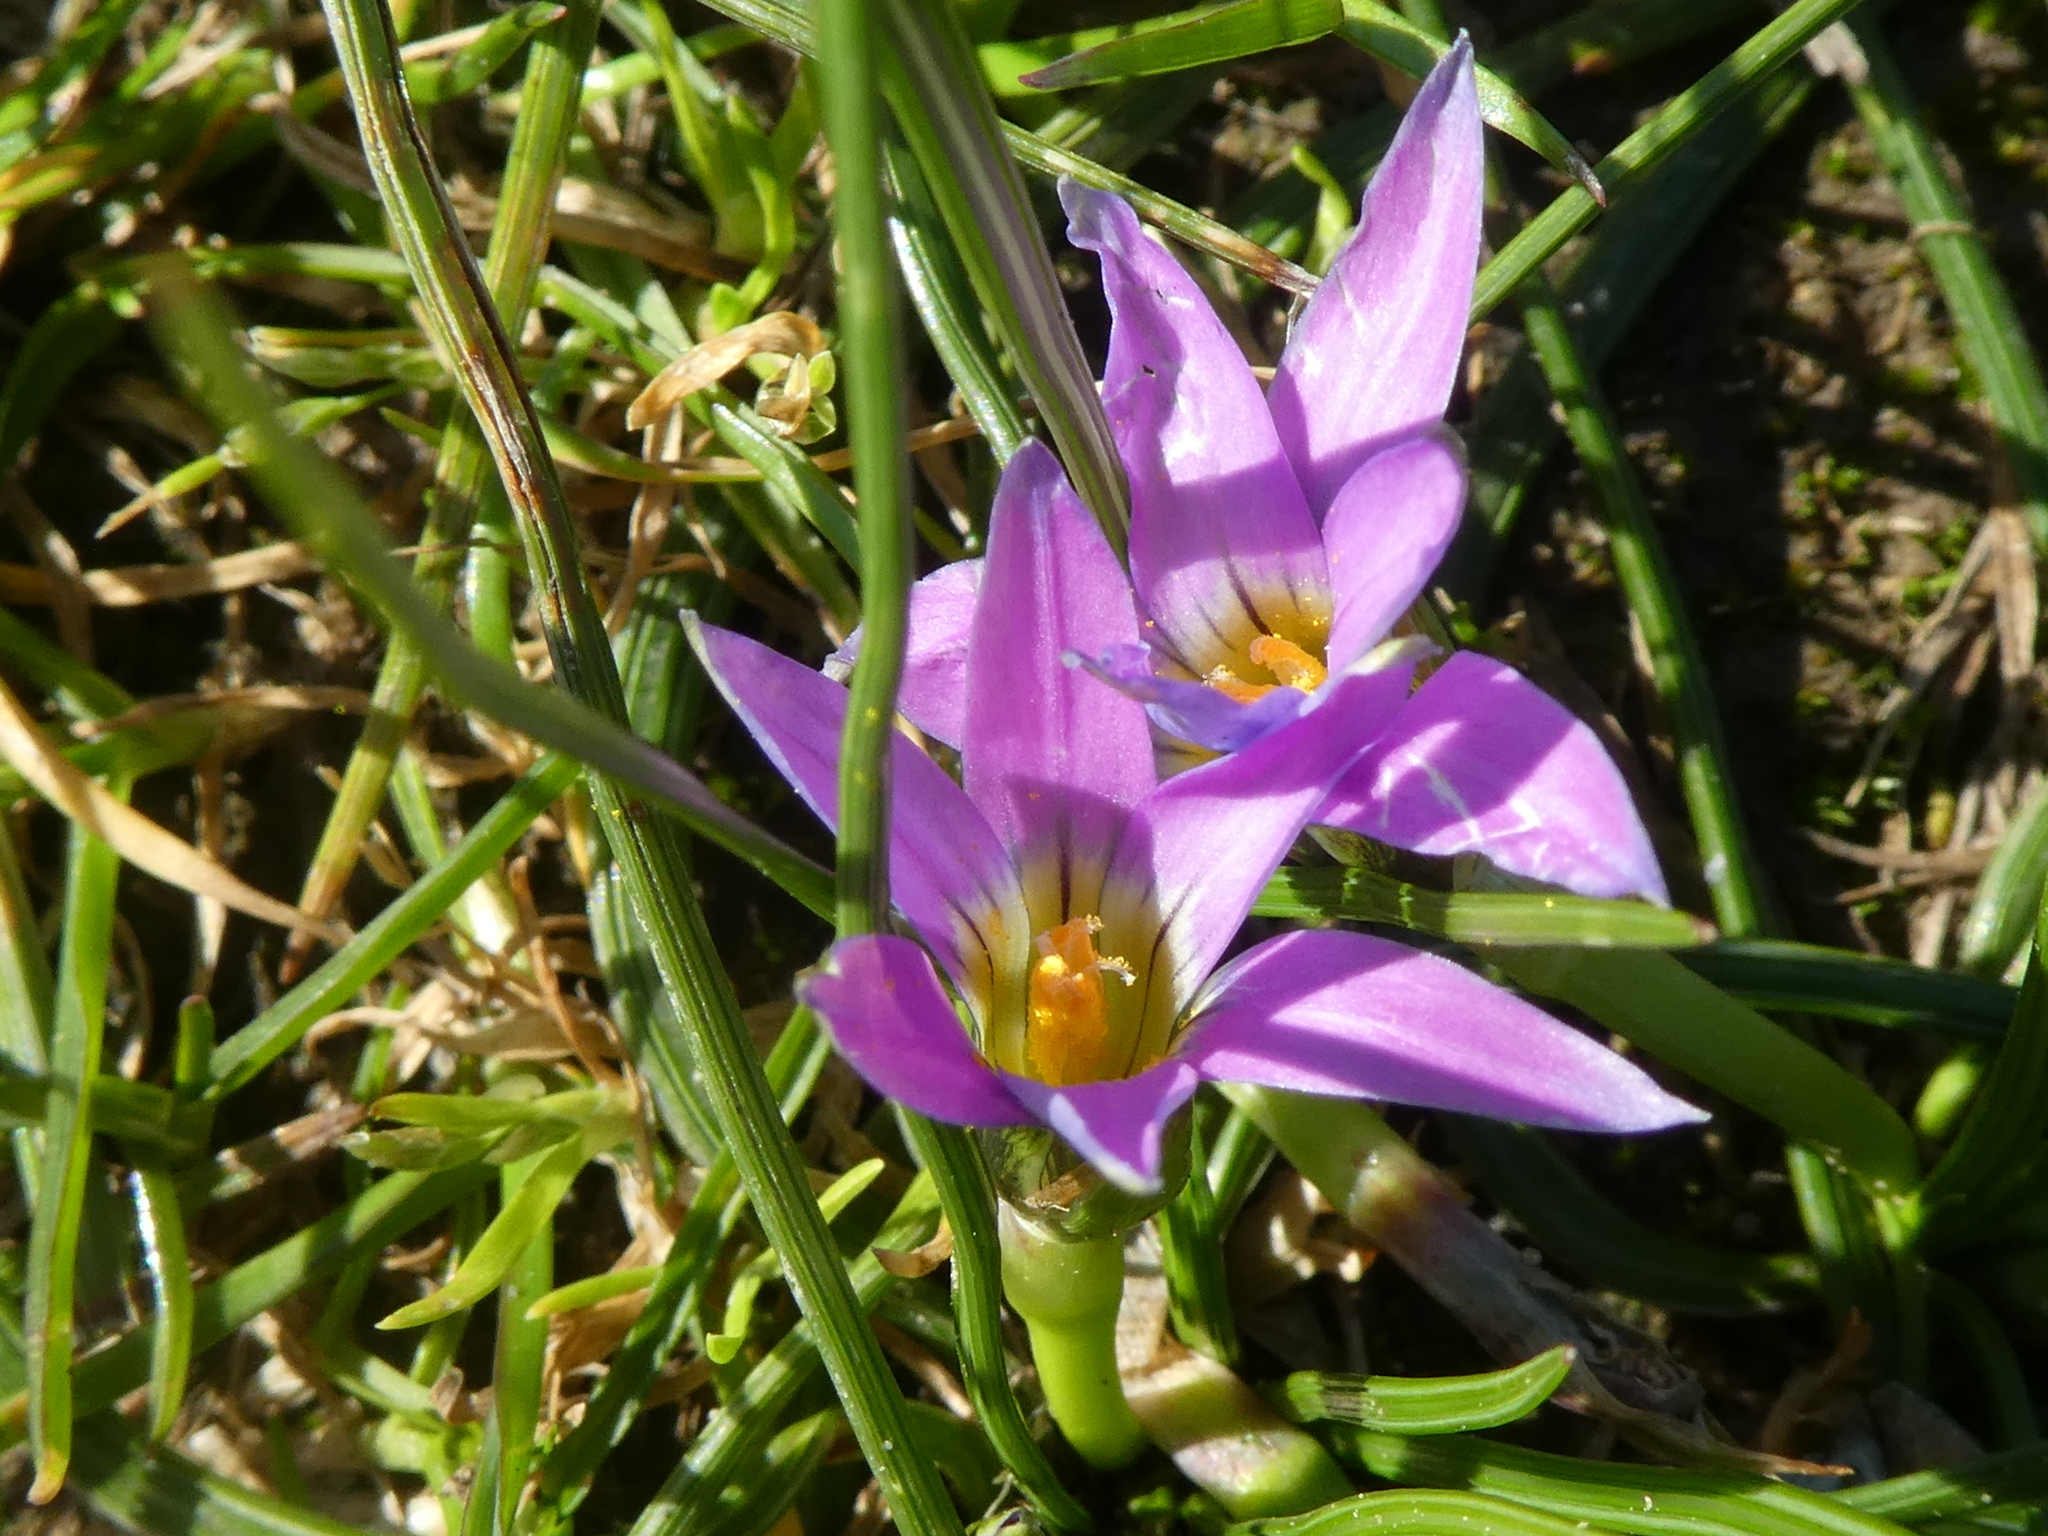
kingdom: Plantae
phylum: Tracheophyta
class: Liliopsida
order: Asparagales
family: Iridaceae
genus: Romulea
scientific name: Romulea rosea
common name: Oniongrass
